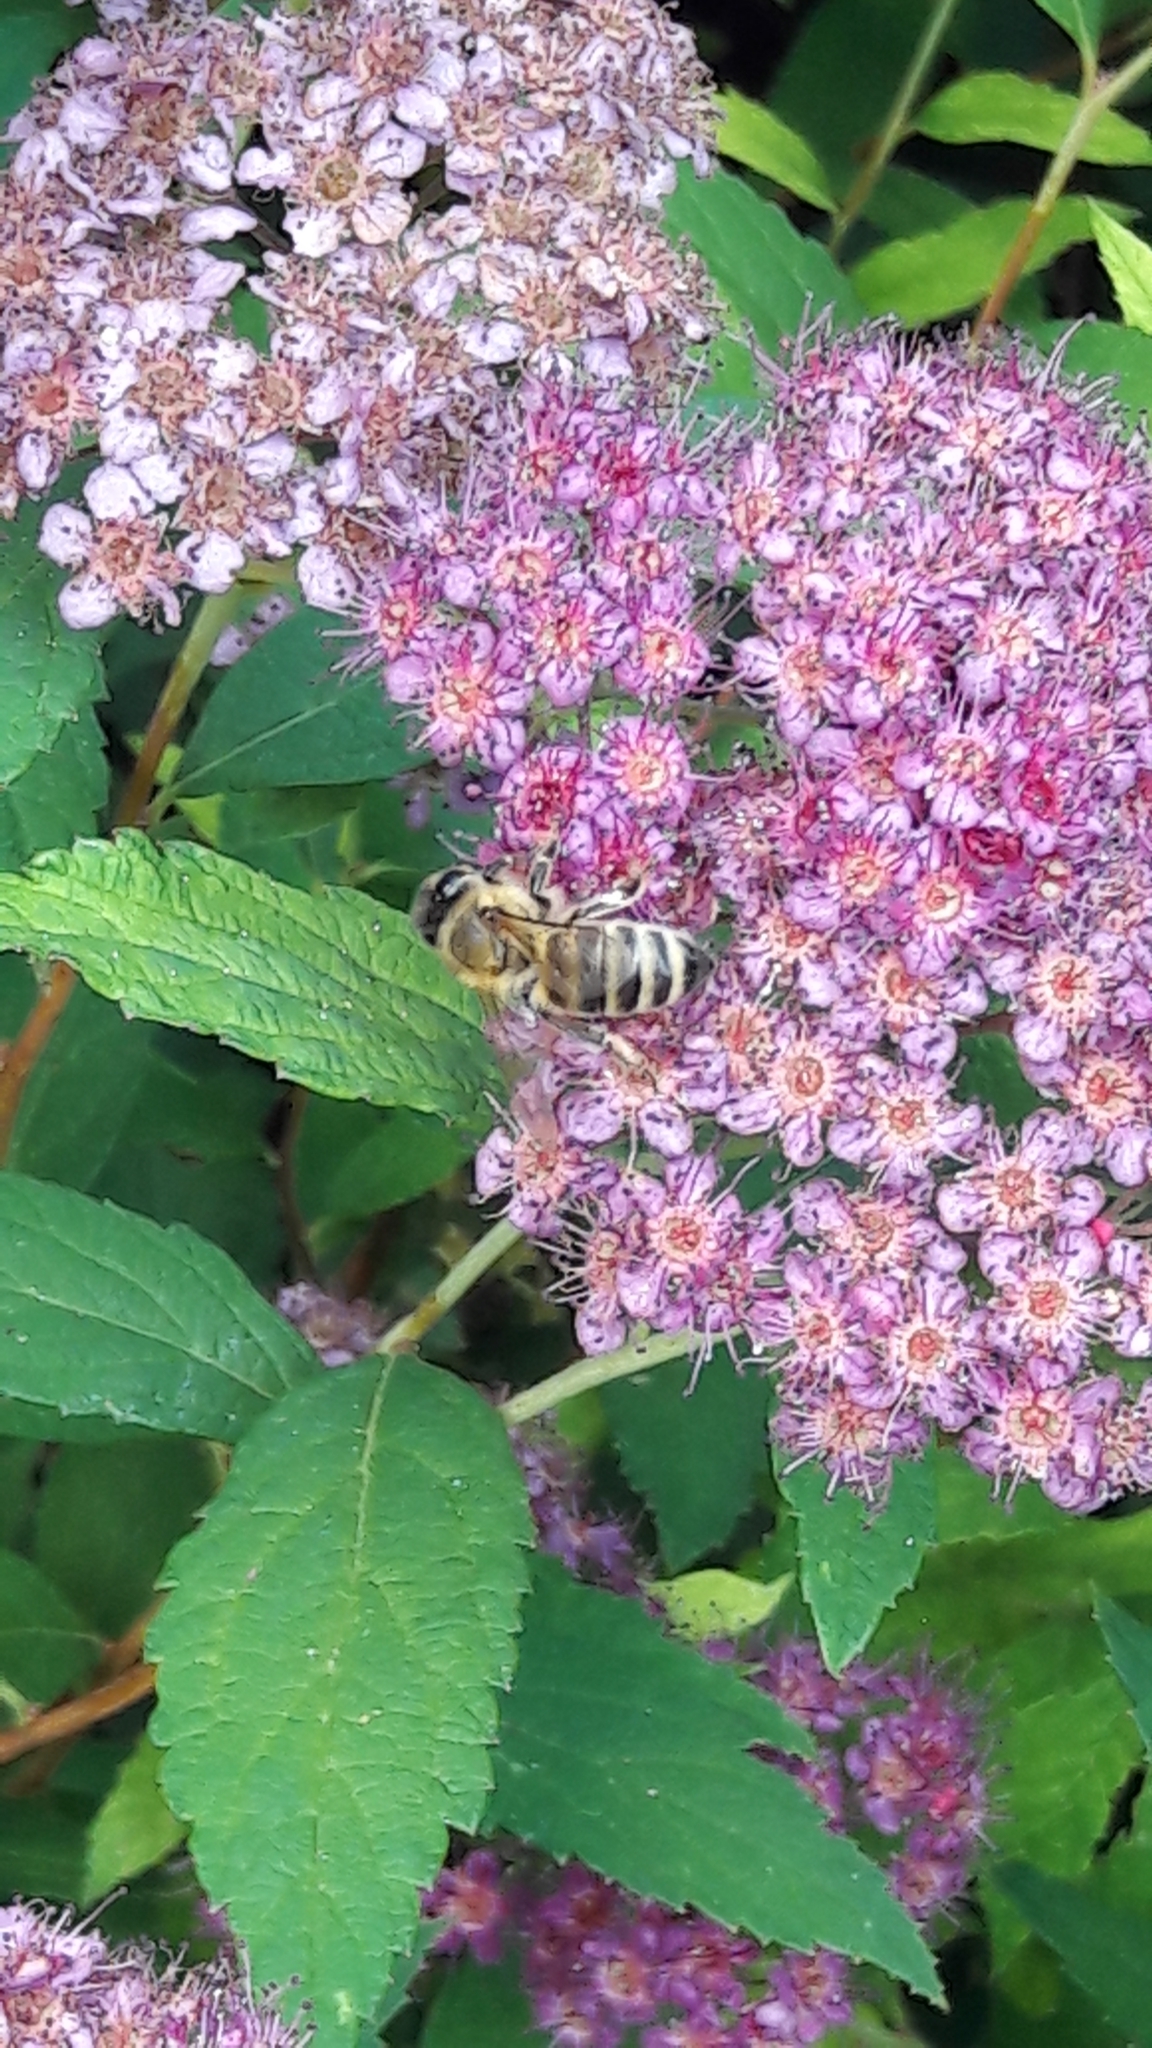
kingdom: Animalia
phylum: Arthropoda
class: Insecta
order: Hymenoptera
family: Apidae
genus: Apis
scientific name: Apis mellifera
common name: Honey bee
